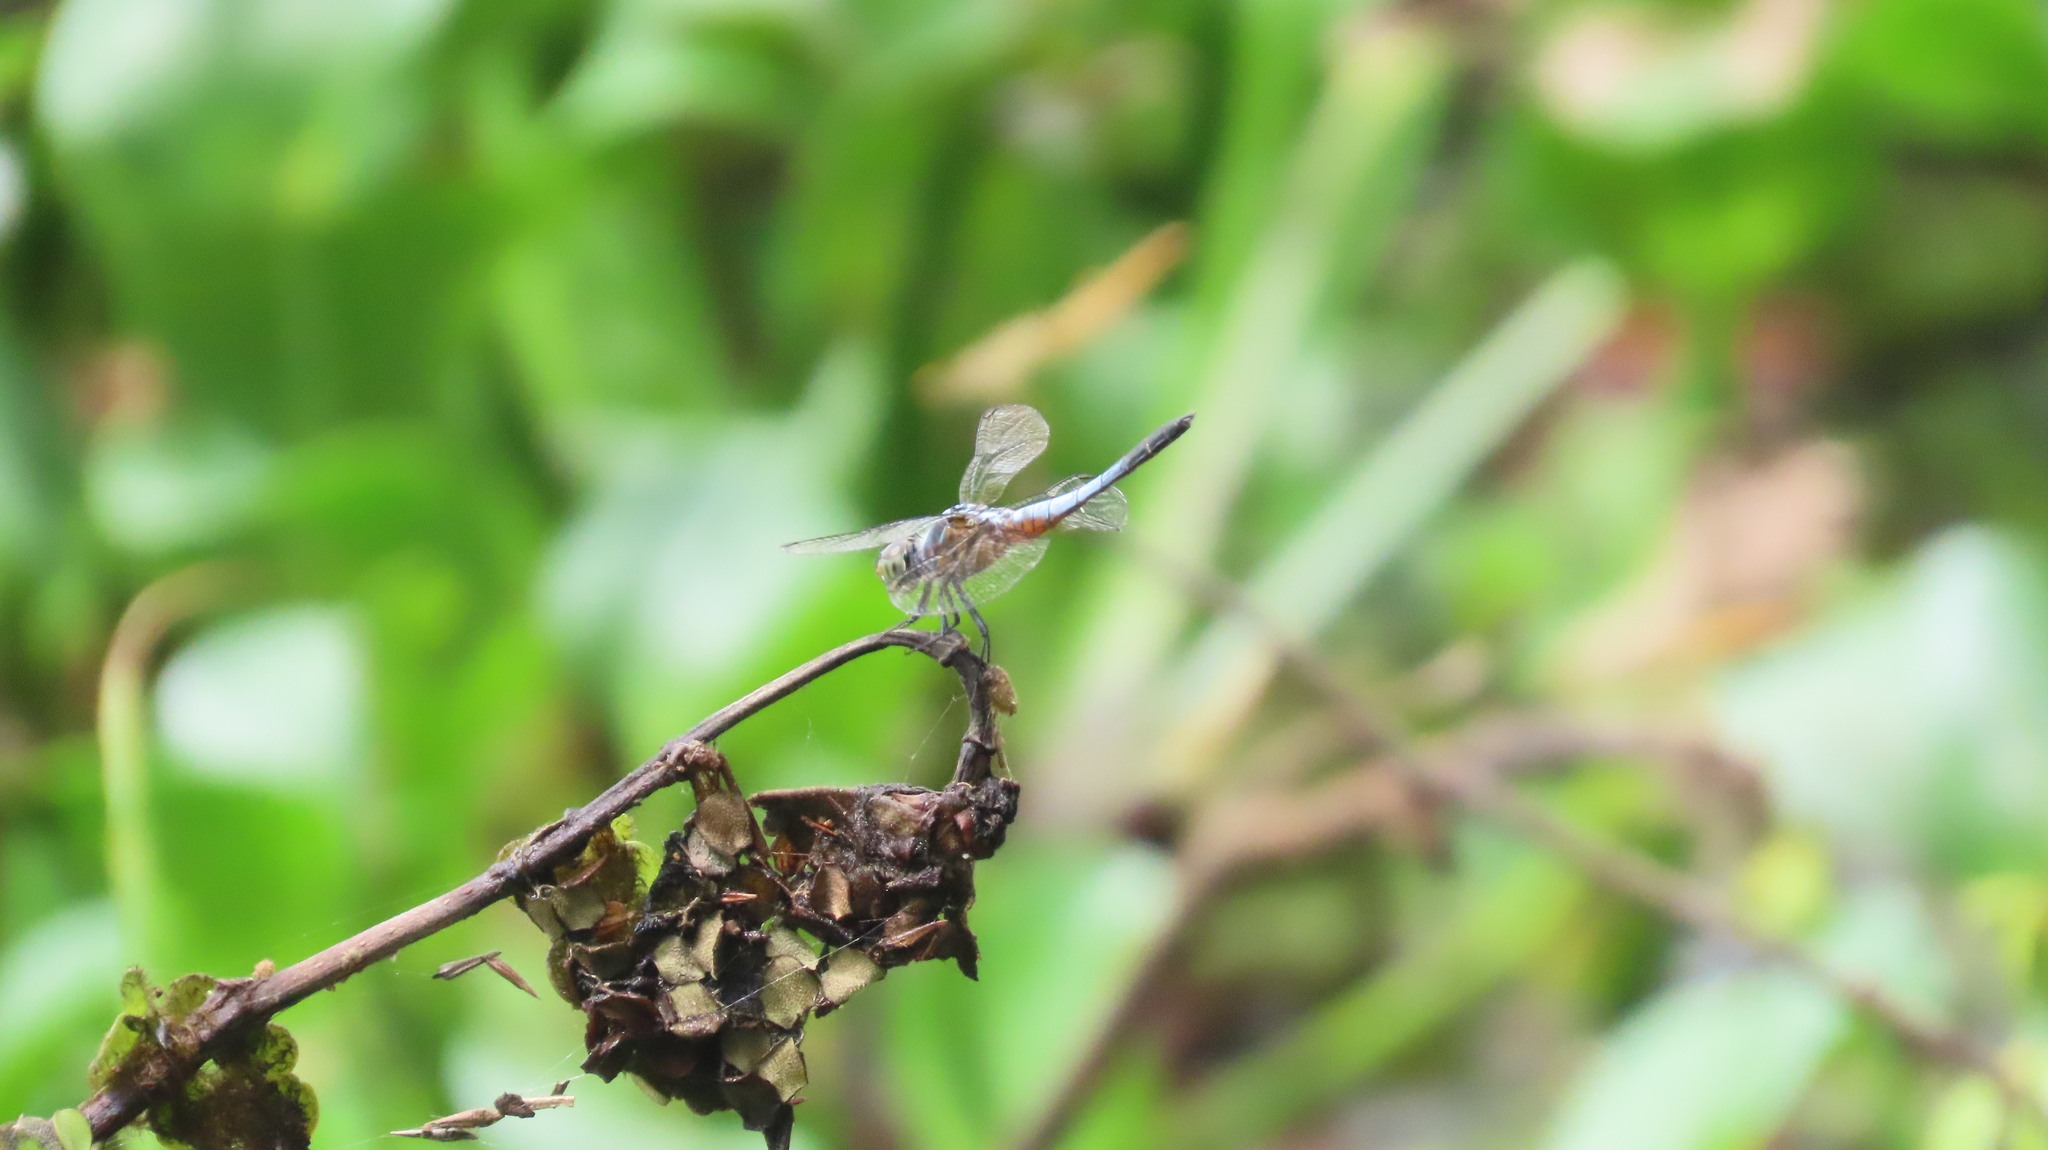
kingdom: Animalia
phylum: Arthropoda
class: Insecta
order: Odonata
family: Libellulidae
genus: Brachydiplax
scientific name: Brachydiplax chalybea
